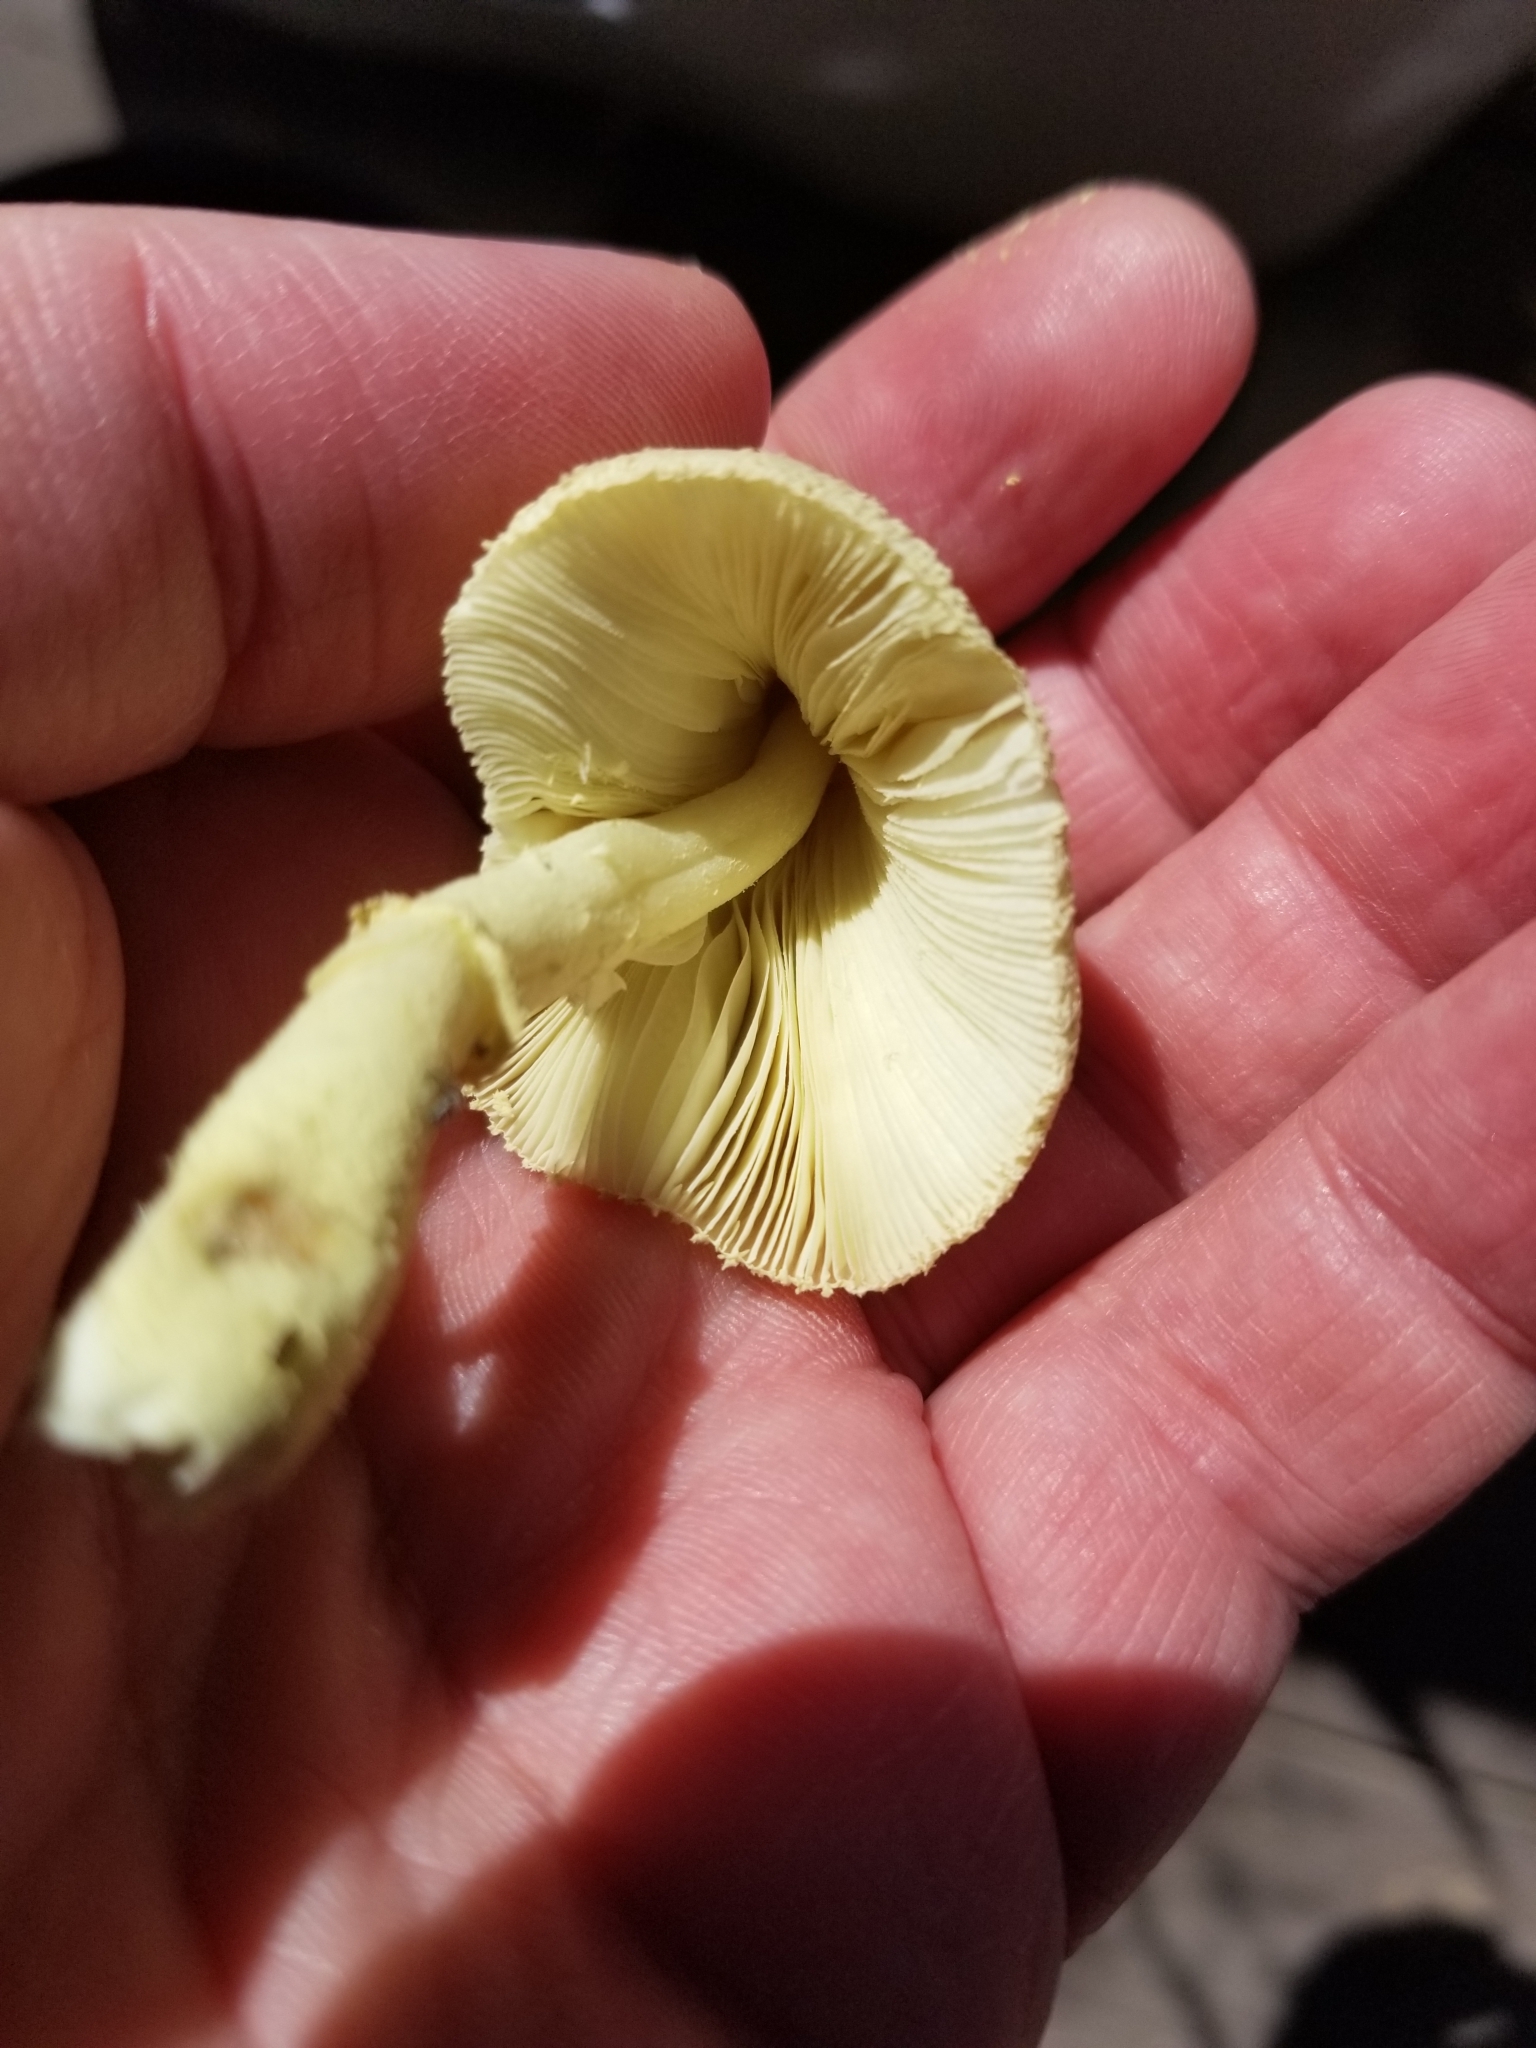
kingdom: Fungi
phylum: Basidiomycota
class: Agaricomycetes
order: Agaricales
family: Agaricaceae
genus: Leucocoprinus
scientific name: Leucocoprinus birnbaumii
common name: Plantpot dapperling
